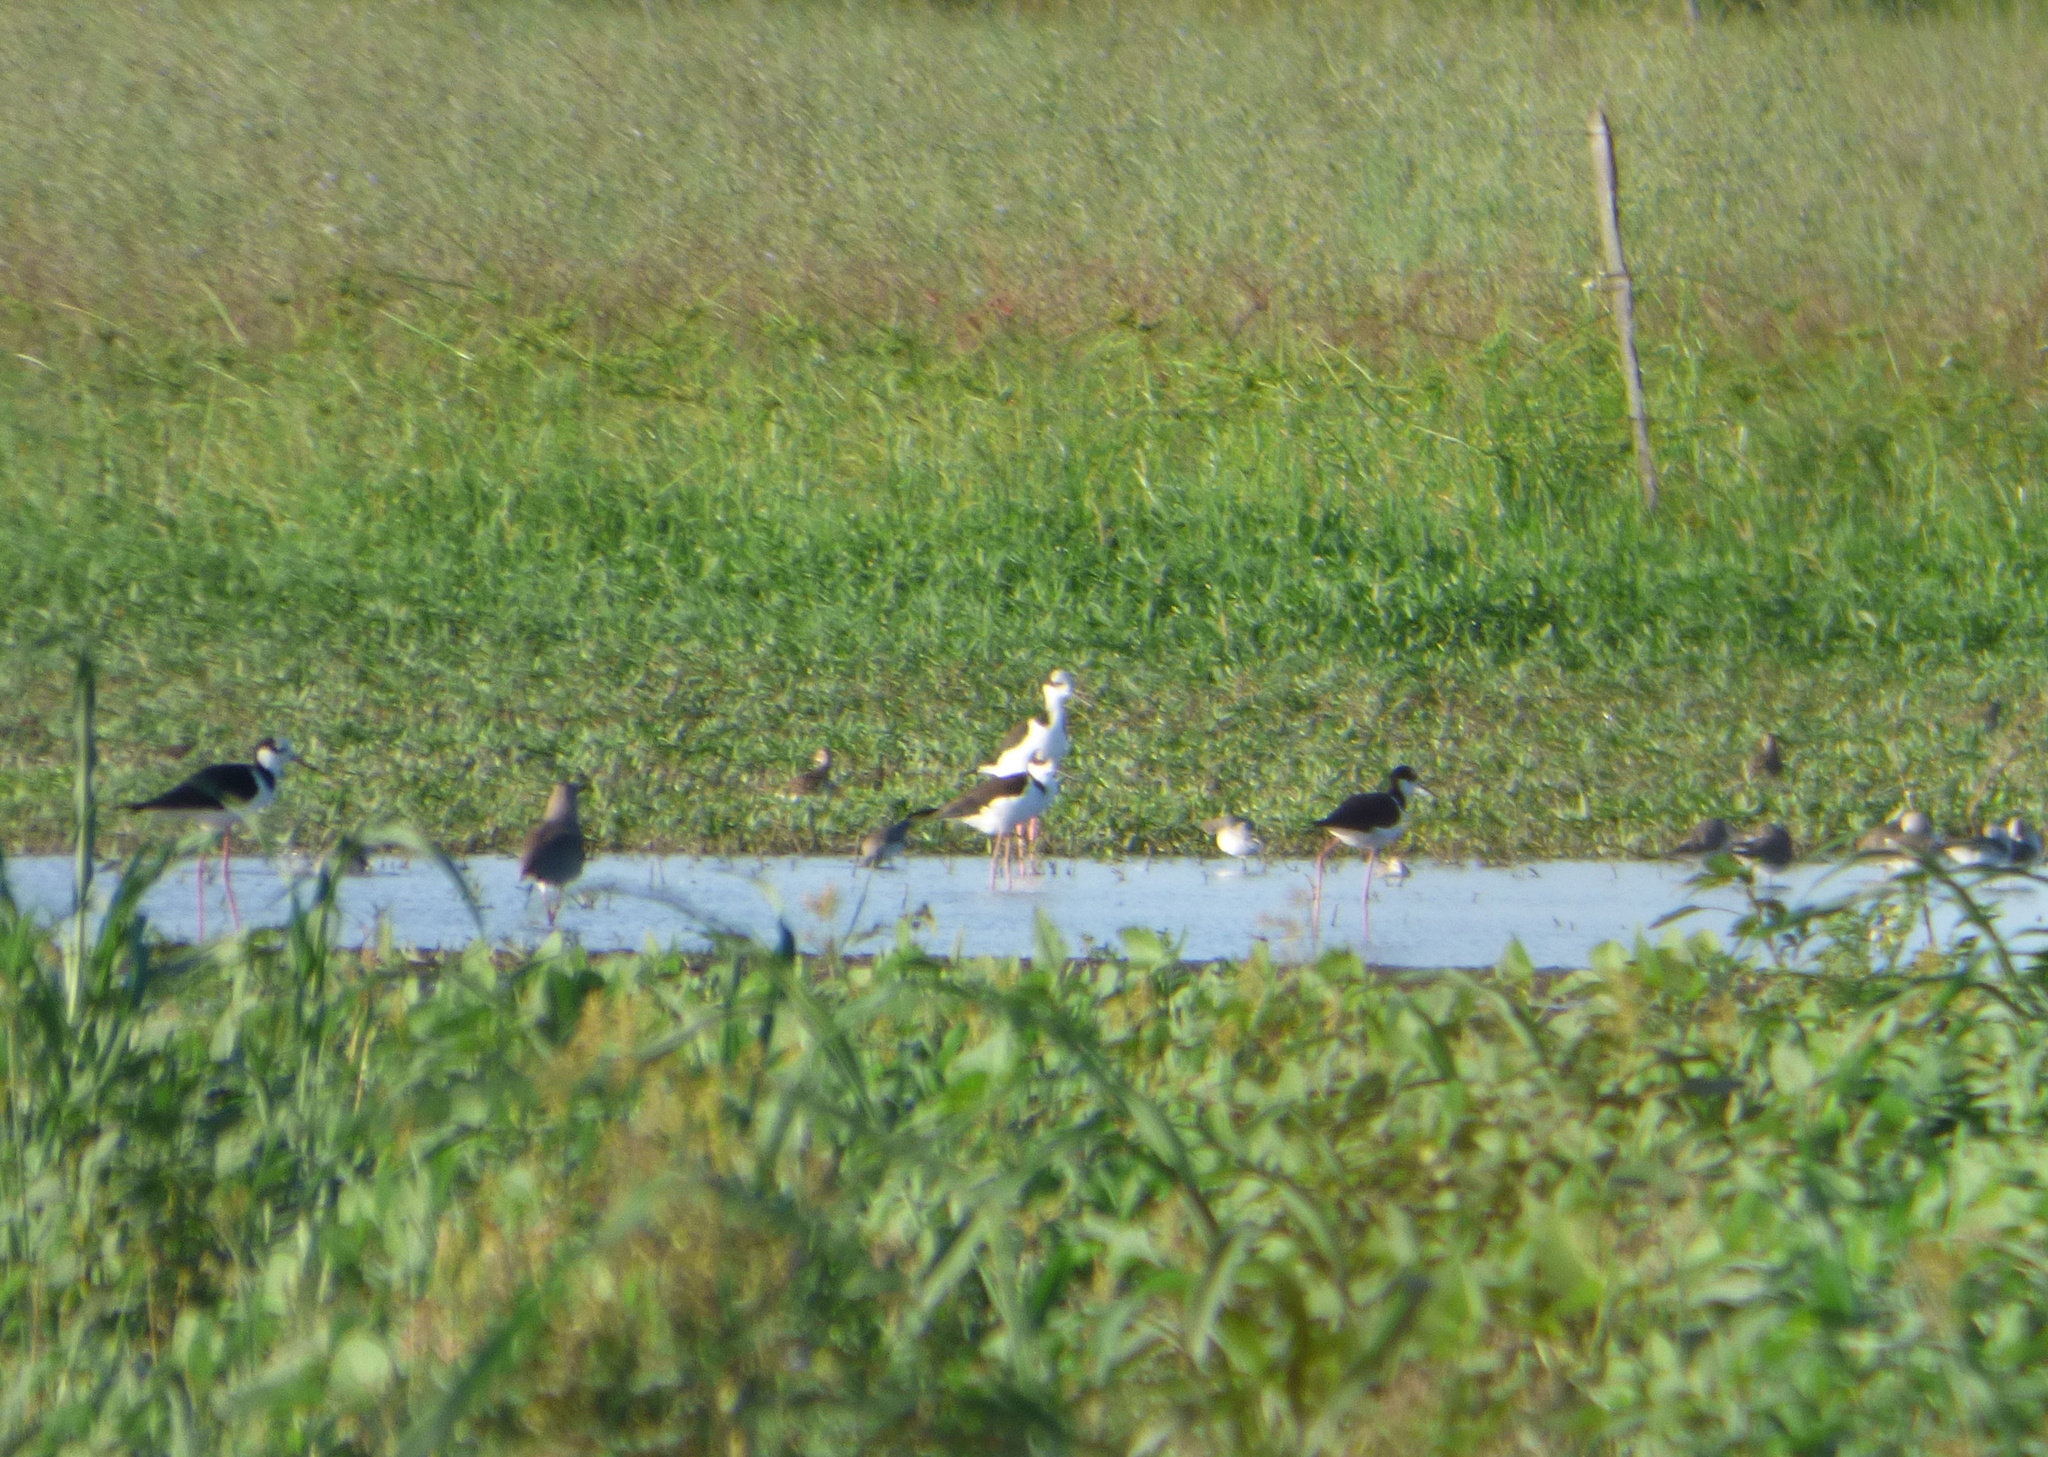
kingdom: Animalia
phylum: Chordata
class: Aves
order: Charadriiformes
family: Recurvirostridae
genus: Himantopus
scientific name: Himantopus mexicanus
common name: Black-necked stilt
